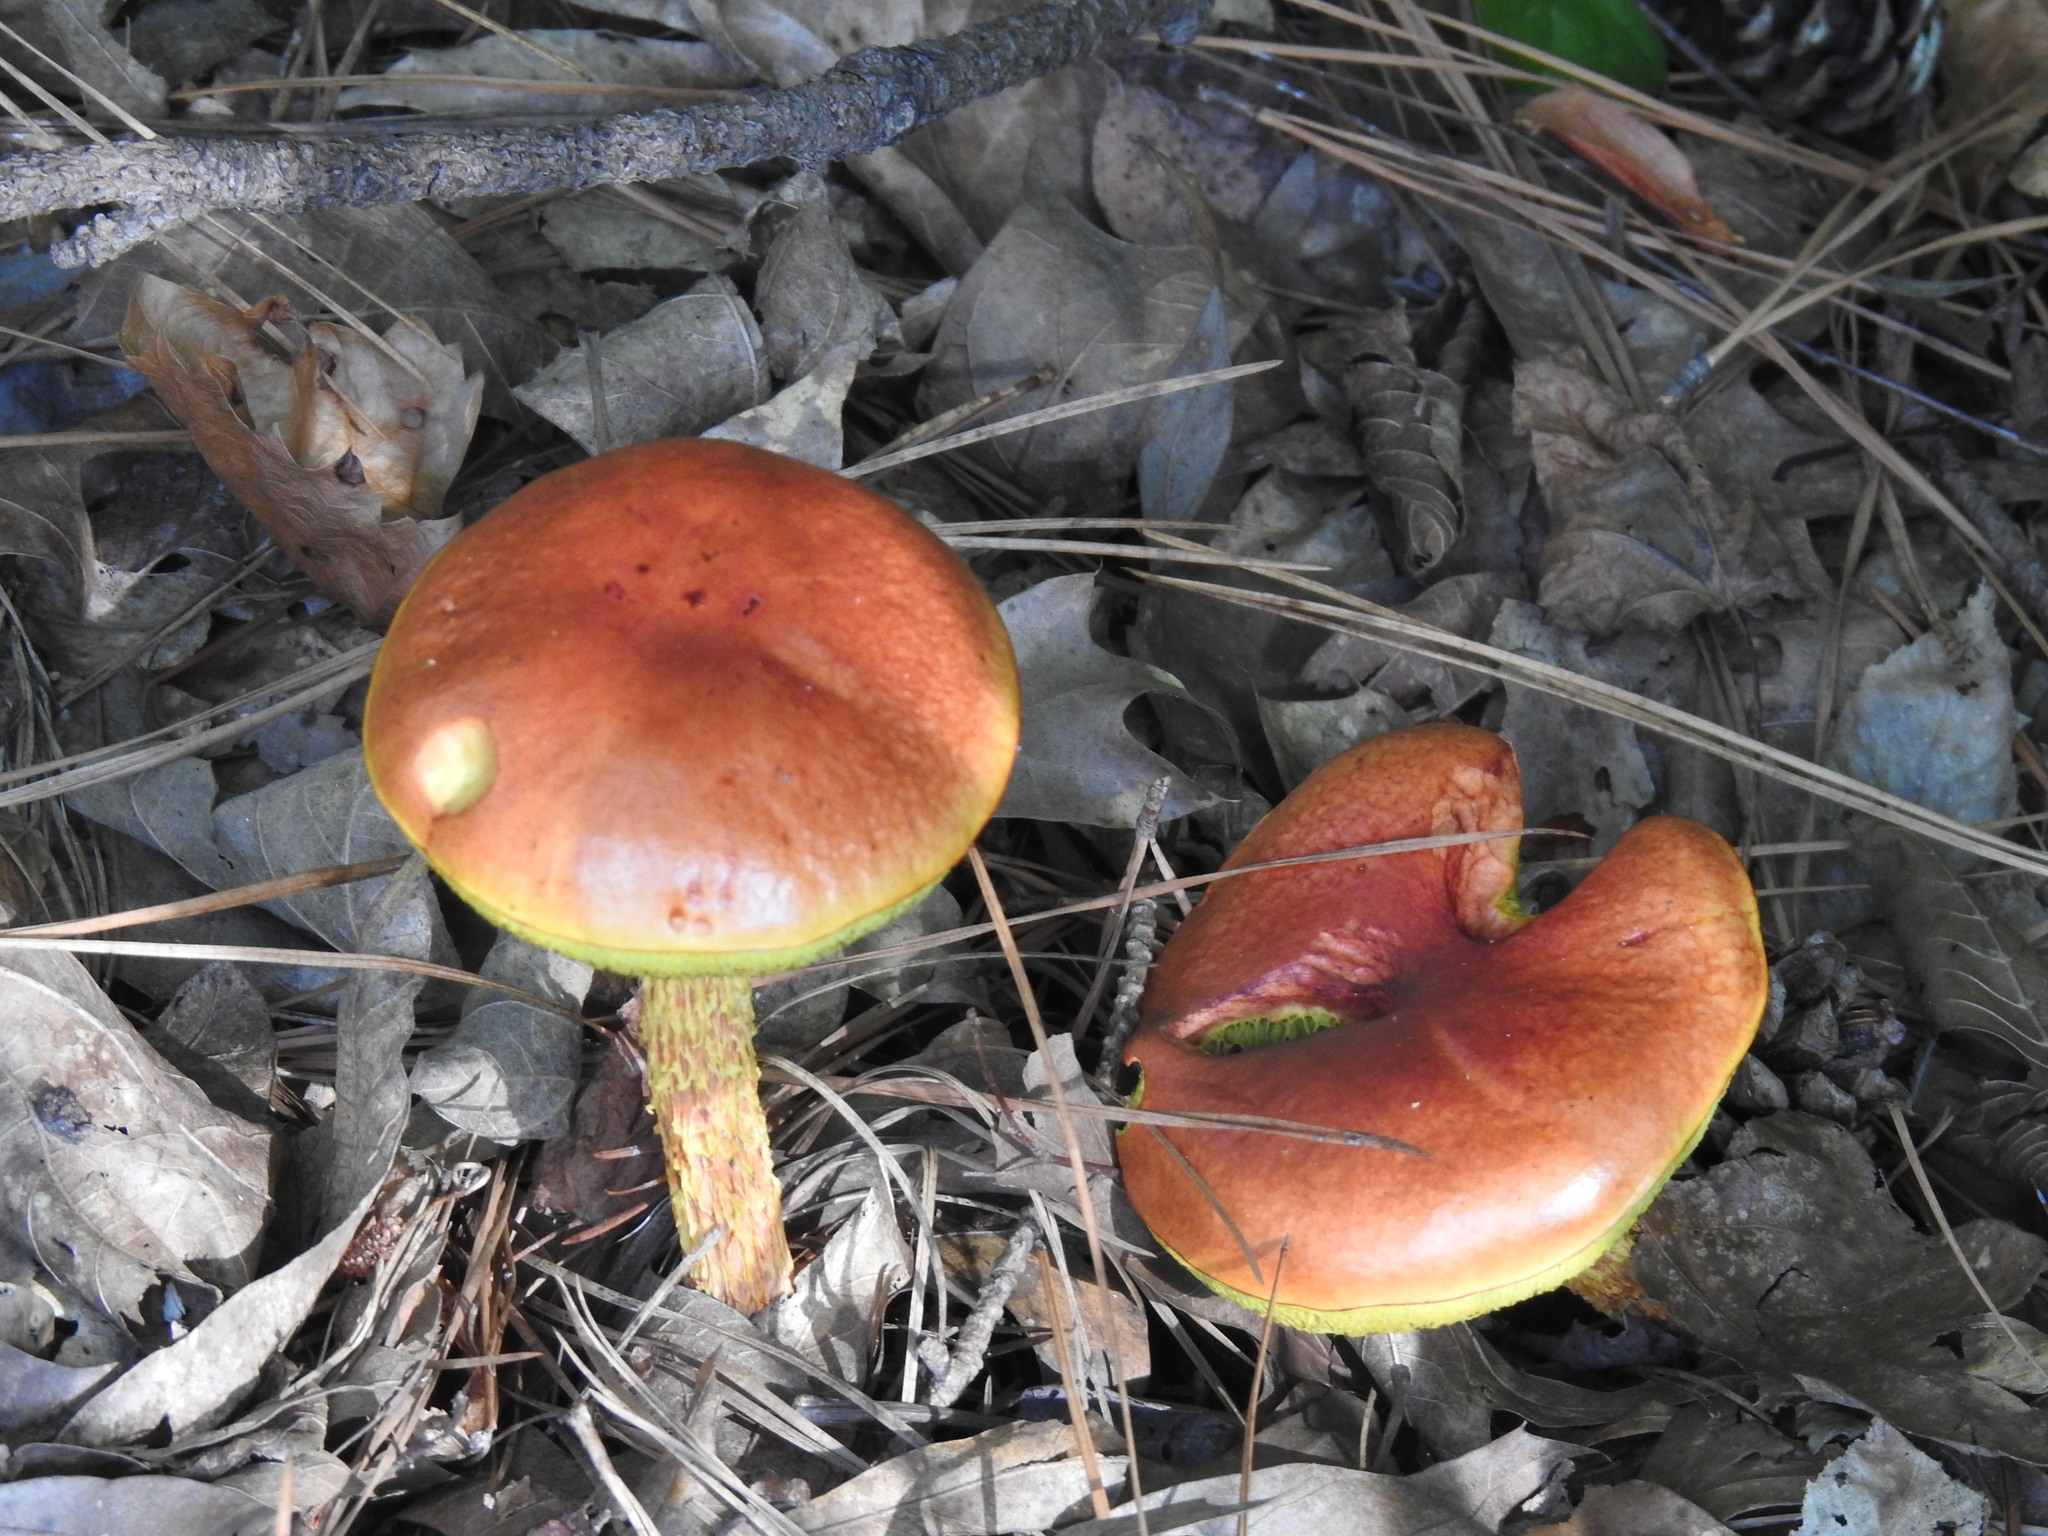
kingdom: Fungi
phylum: Basidiomycota
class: Agaricomycetes
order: Boletales
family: Boletaceae
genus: Aureoboletus
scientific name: Aureoboletus betula
